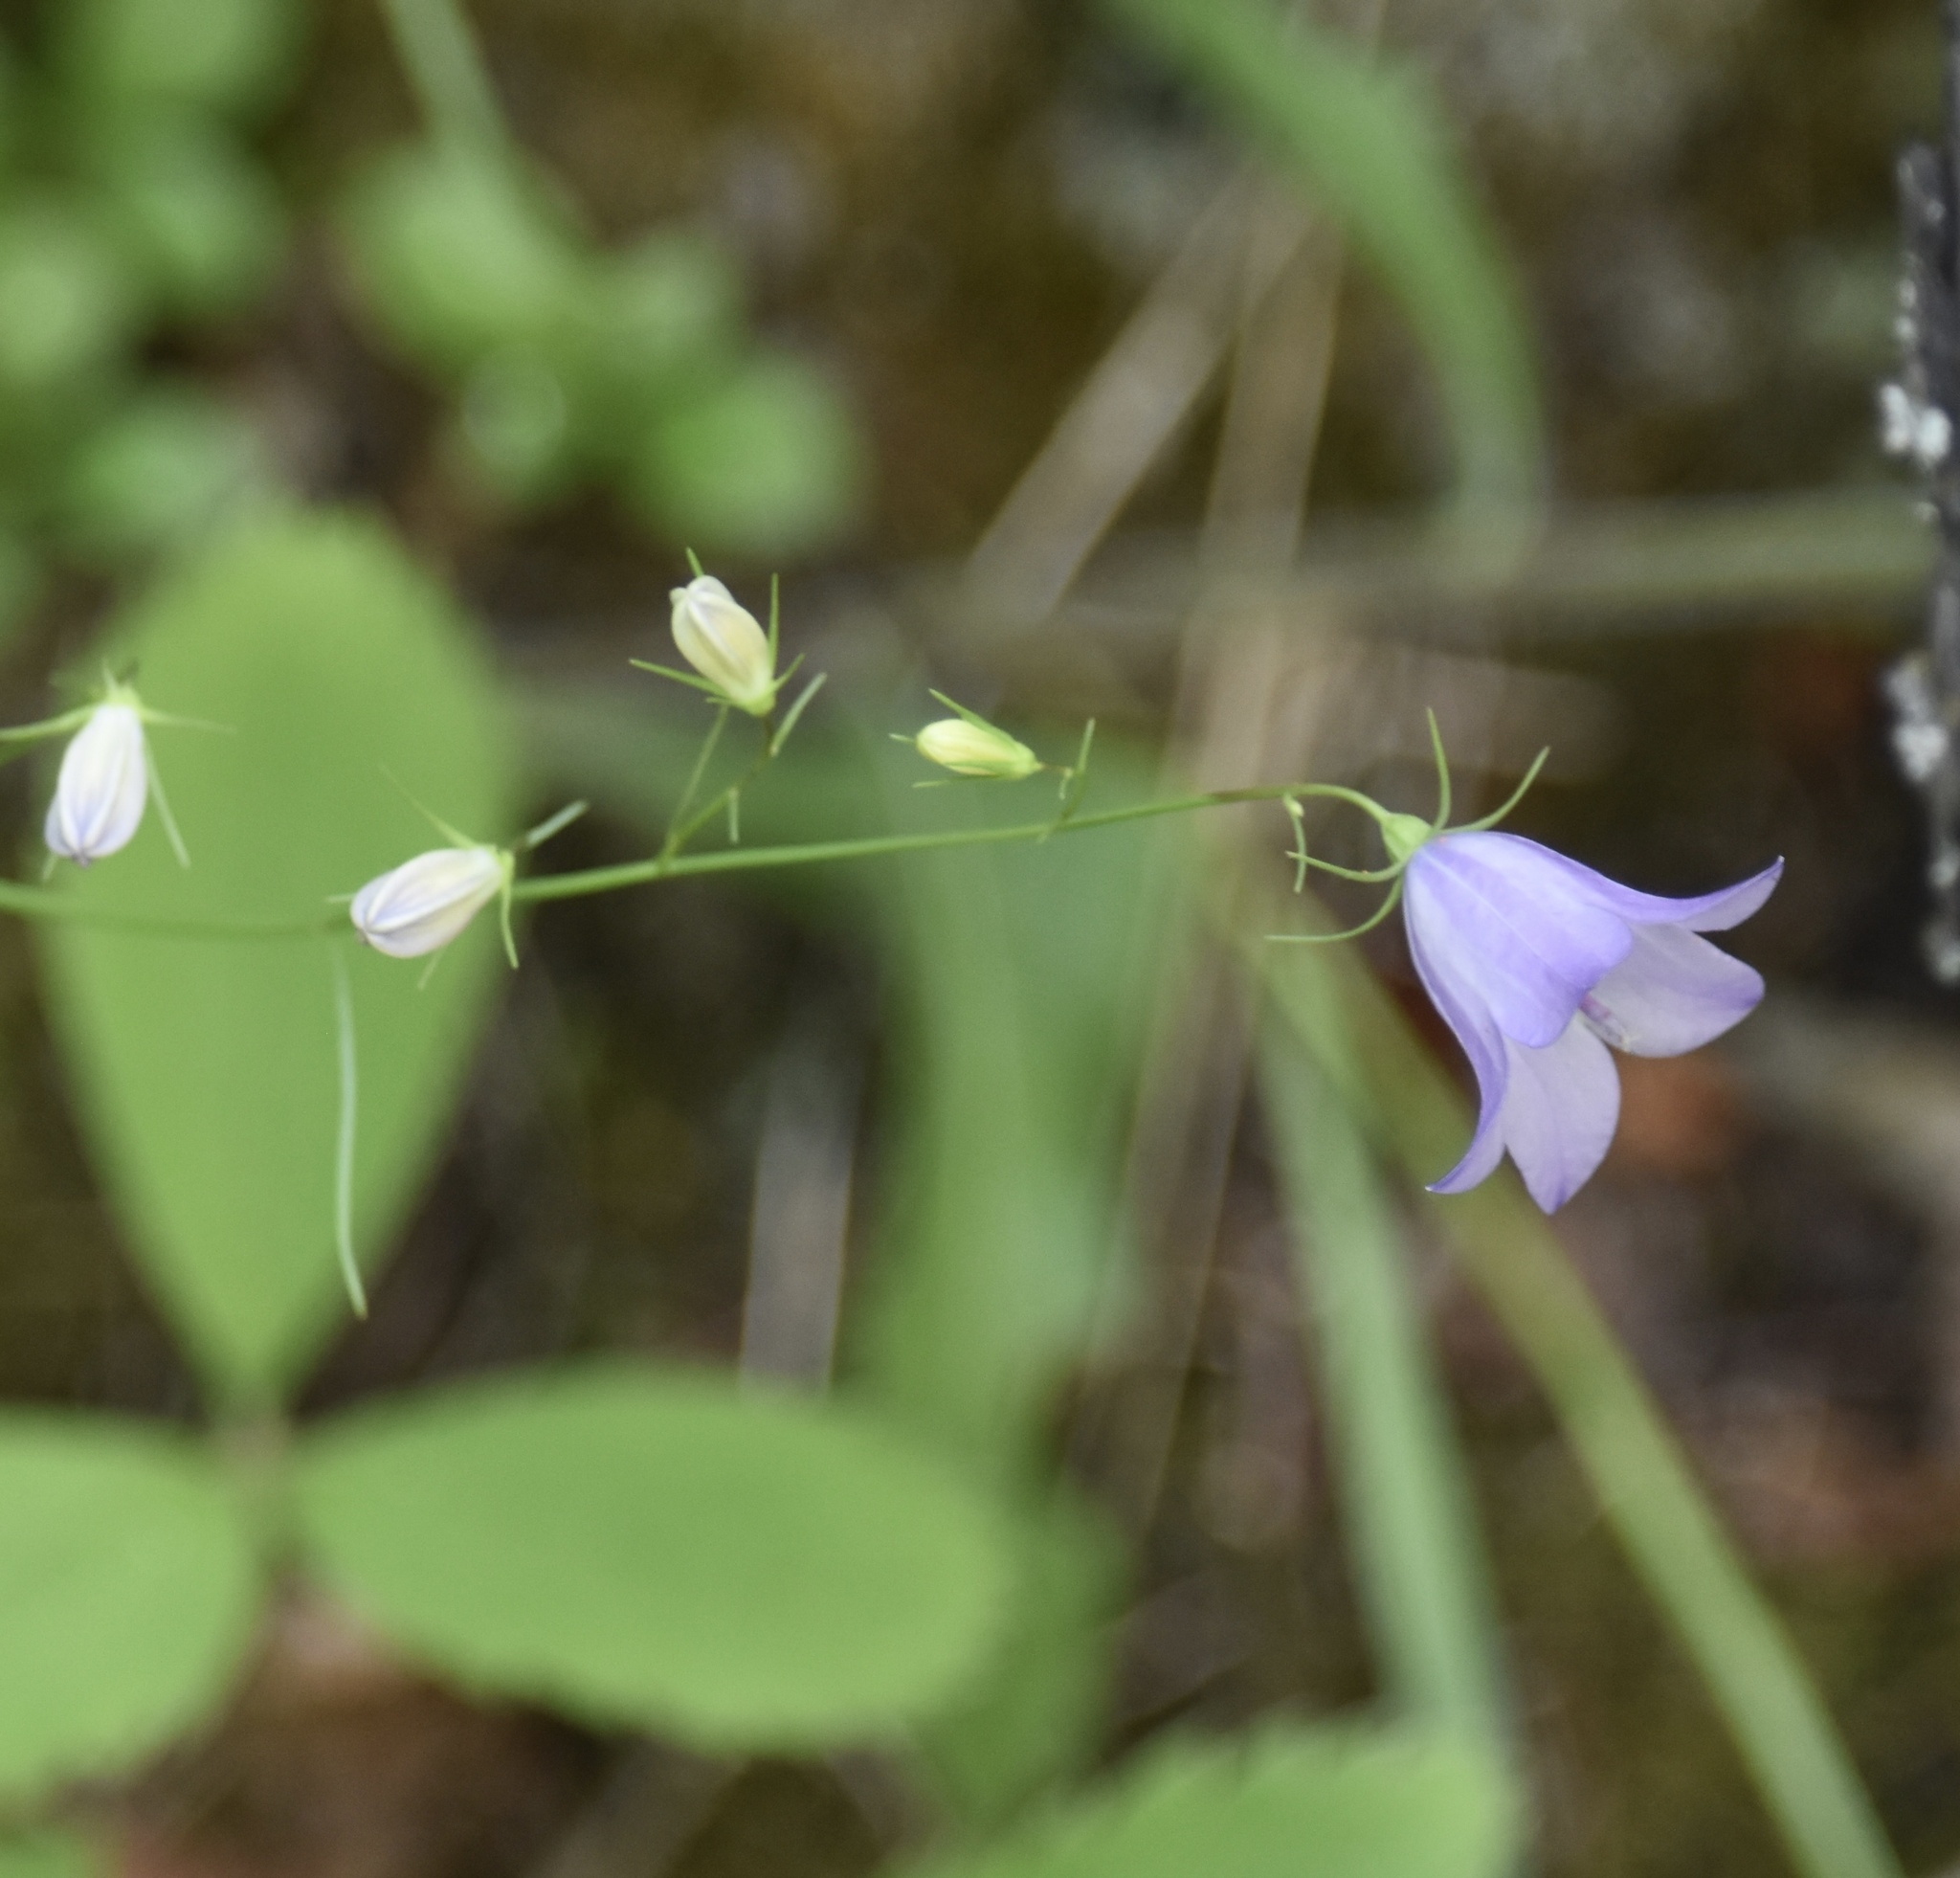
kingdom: Plantae
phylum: Tracheophyta
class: Magnoliopsida
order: Asterales
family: Campanulaceae
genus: Campanula
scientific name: Campanula alaskana
